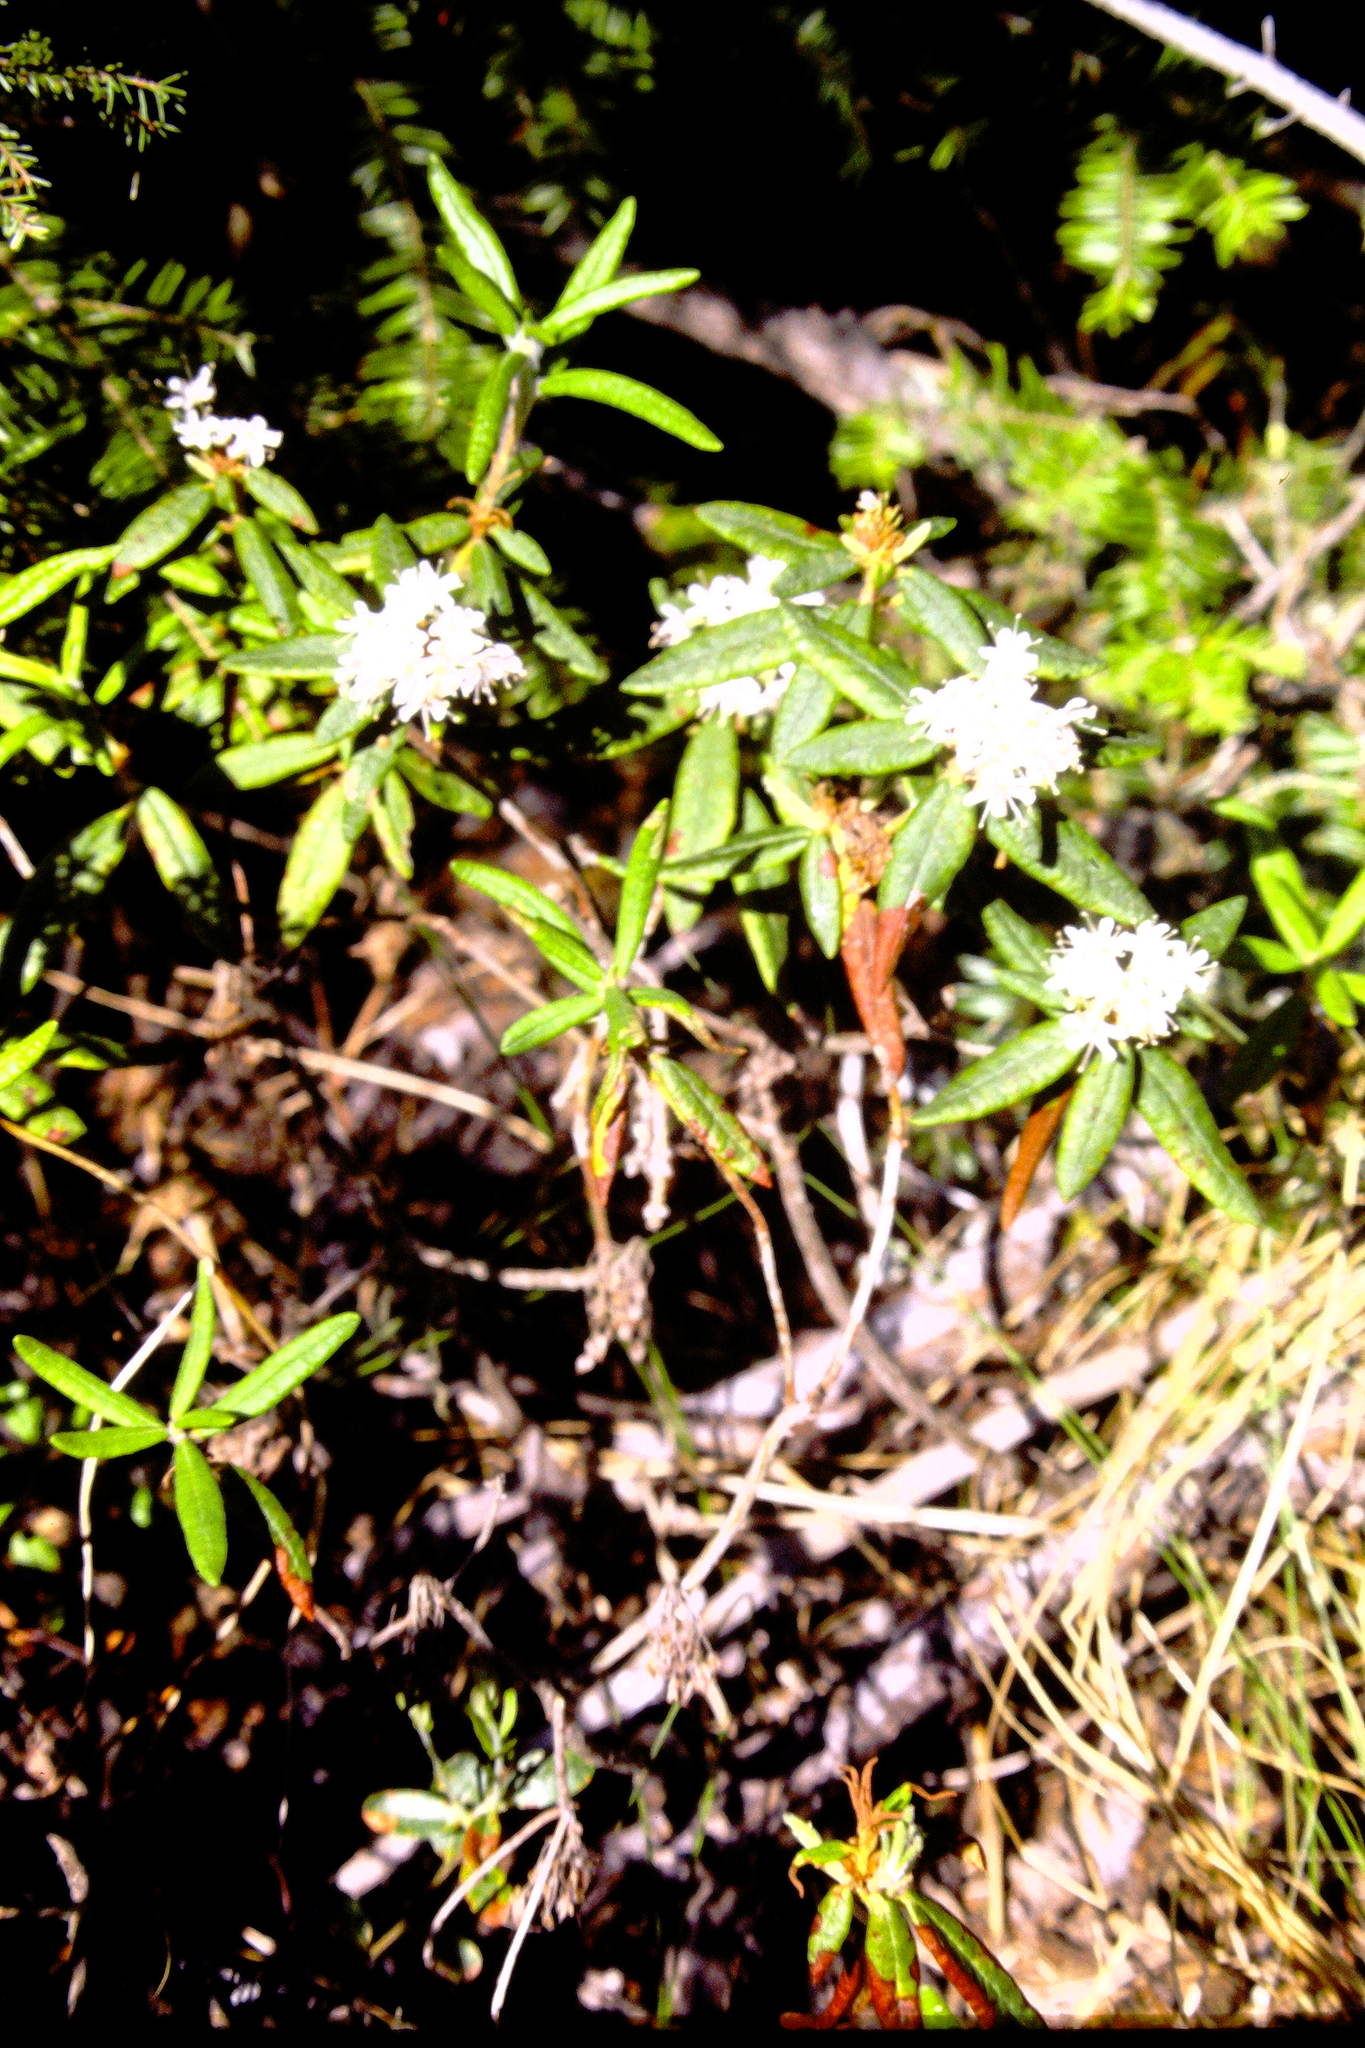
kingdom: Plantae
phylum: Tracheophyta
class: Magnoliopsida
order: Ericales
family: Ericaceae
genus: Rhododendron
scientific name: Rhododendron groenlandicum
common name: Bog labrador tea
